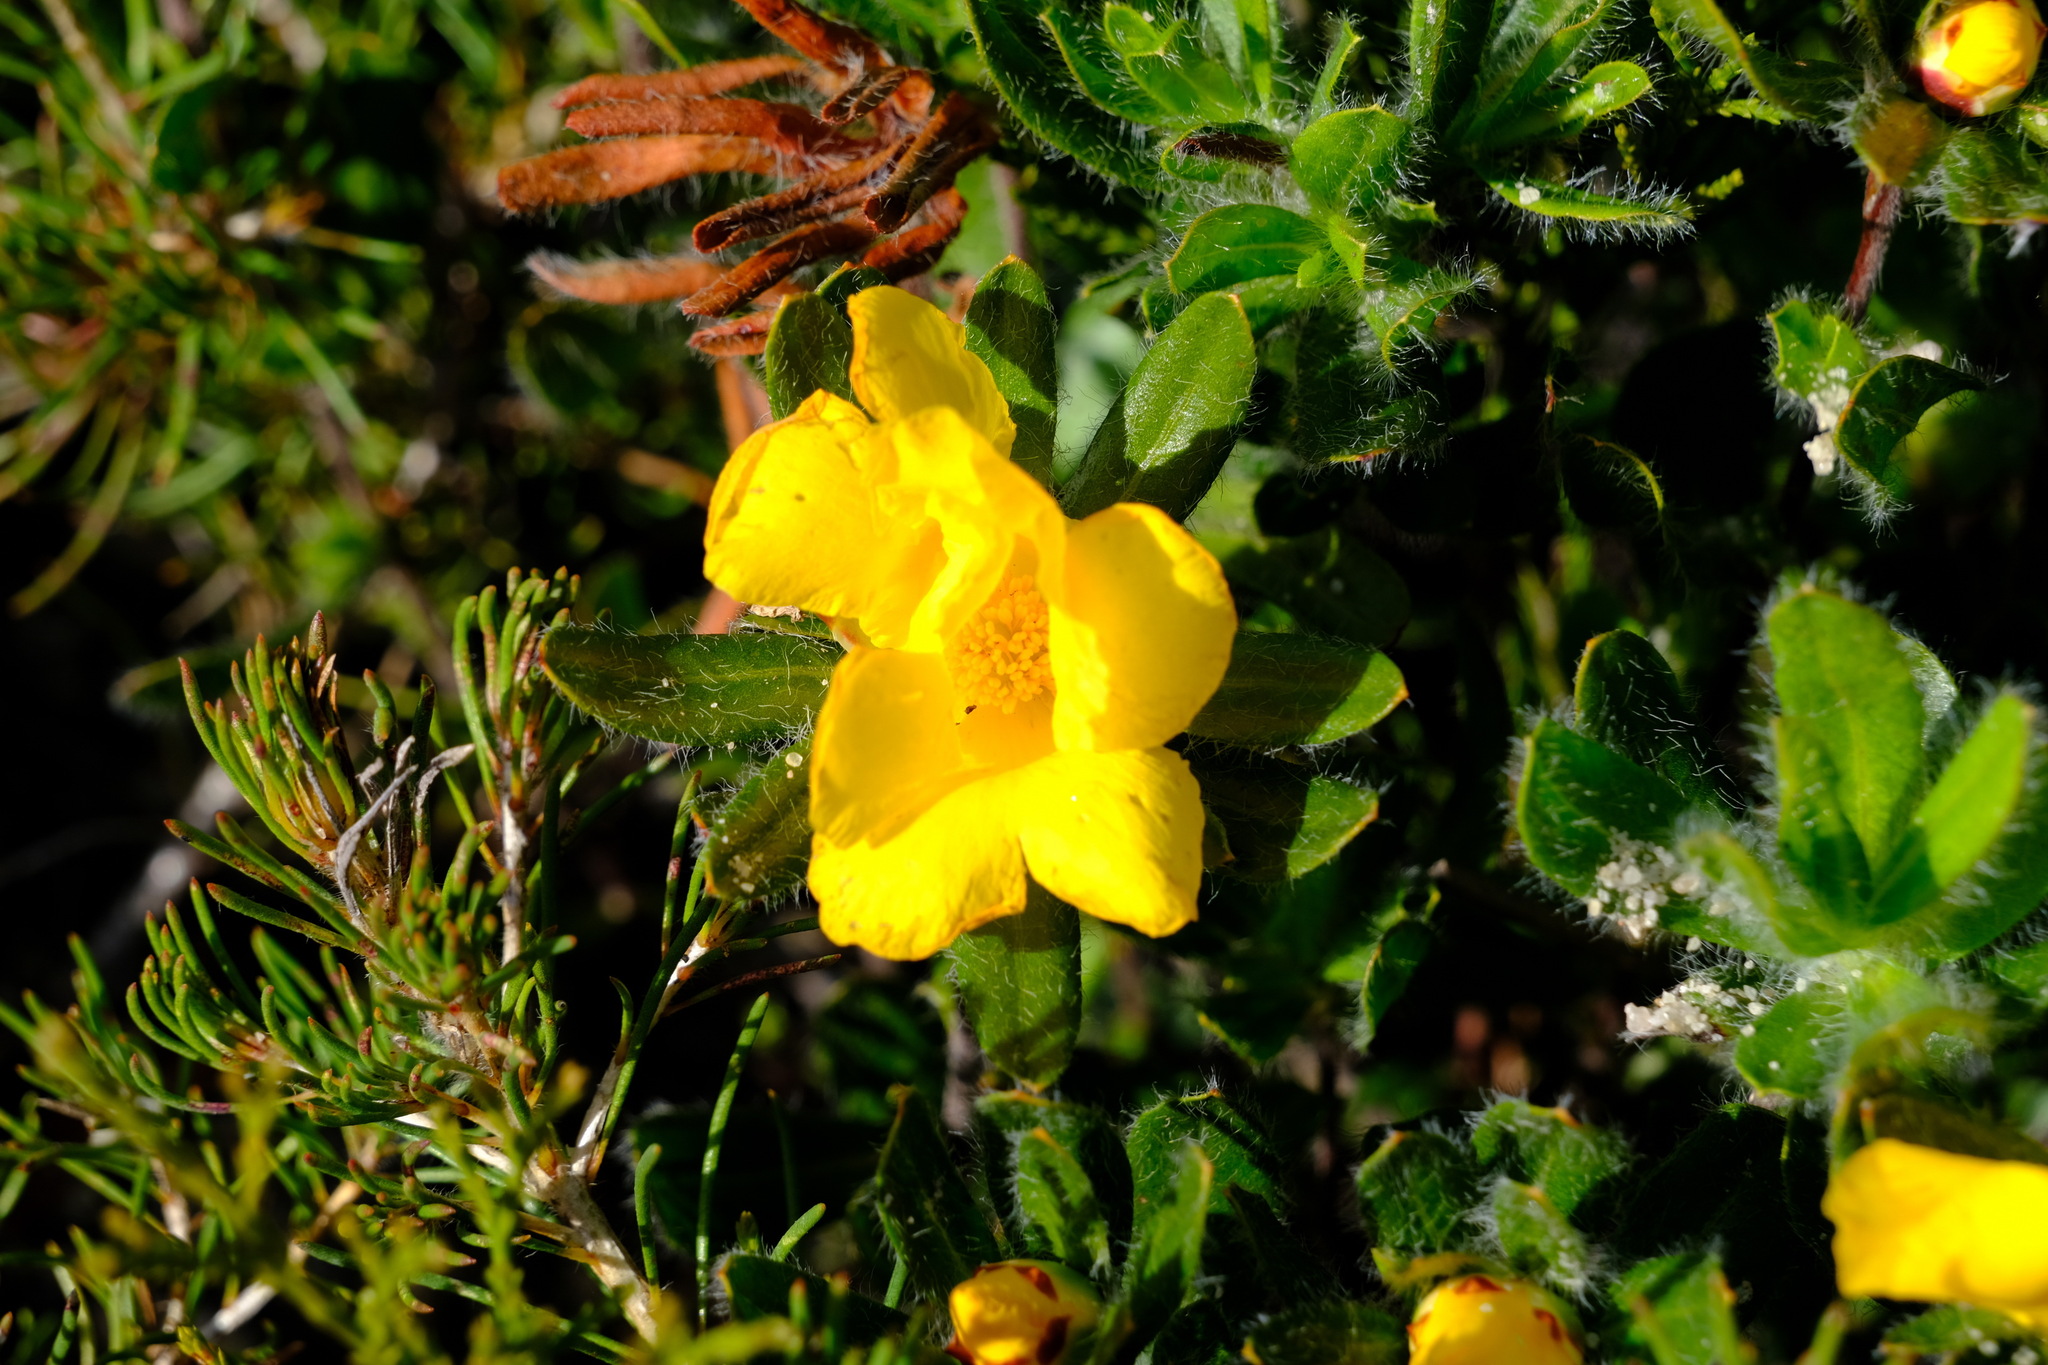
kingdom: Plantae
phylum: Tracheophyta
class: Magnoliopsida
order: Dilleniales
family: Dilleniaceae
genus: Hibbertia
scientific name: Hibbertia mylnei
